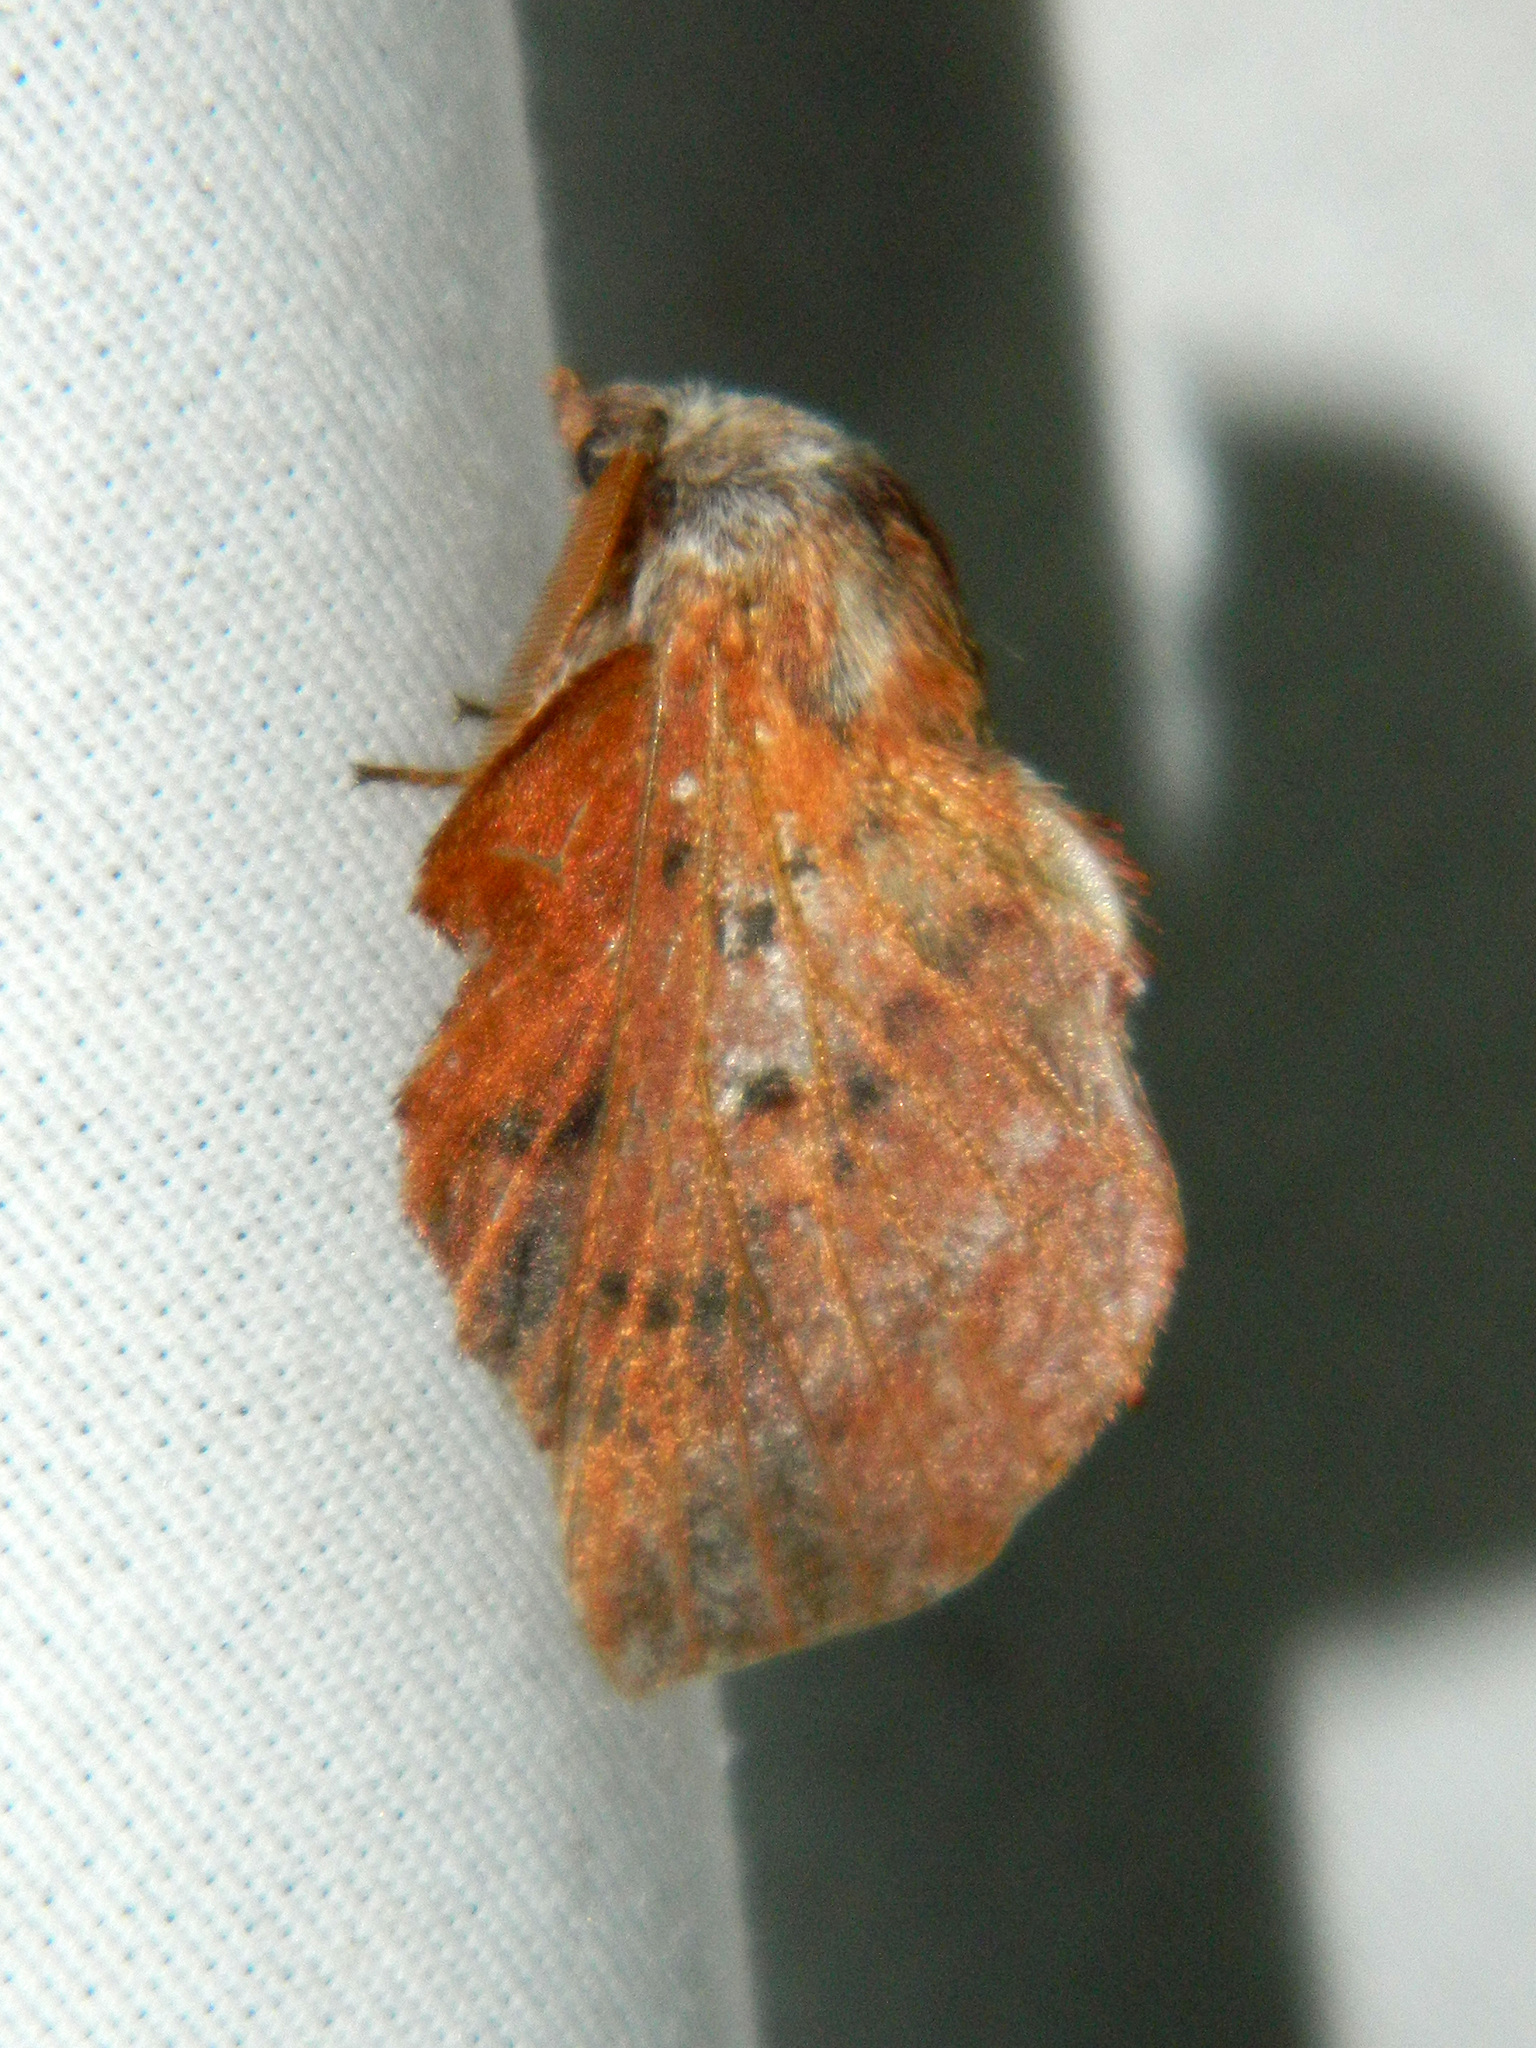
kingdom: Animalia
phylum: Arthropoda
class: Insecta
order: Lepidoptera
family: Lasiocampidae
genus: Phyllodesma
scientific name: Phyllodesma americana
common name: American lappet moth
